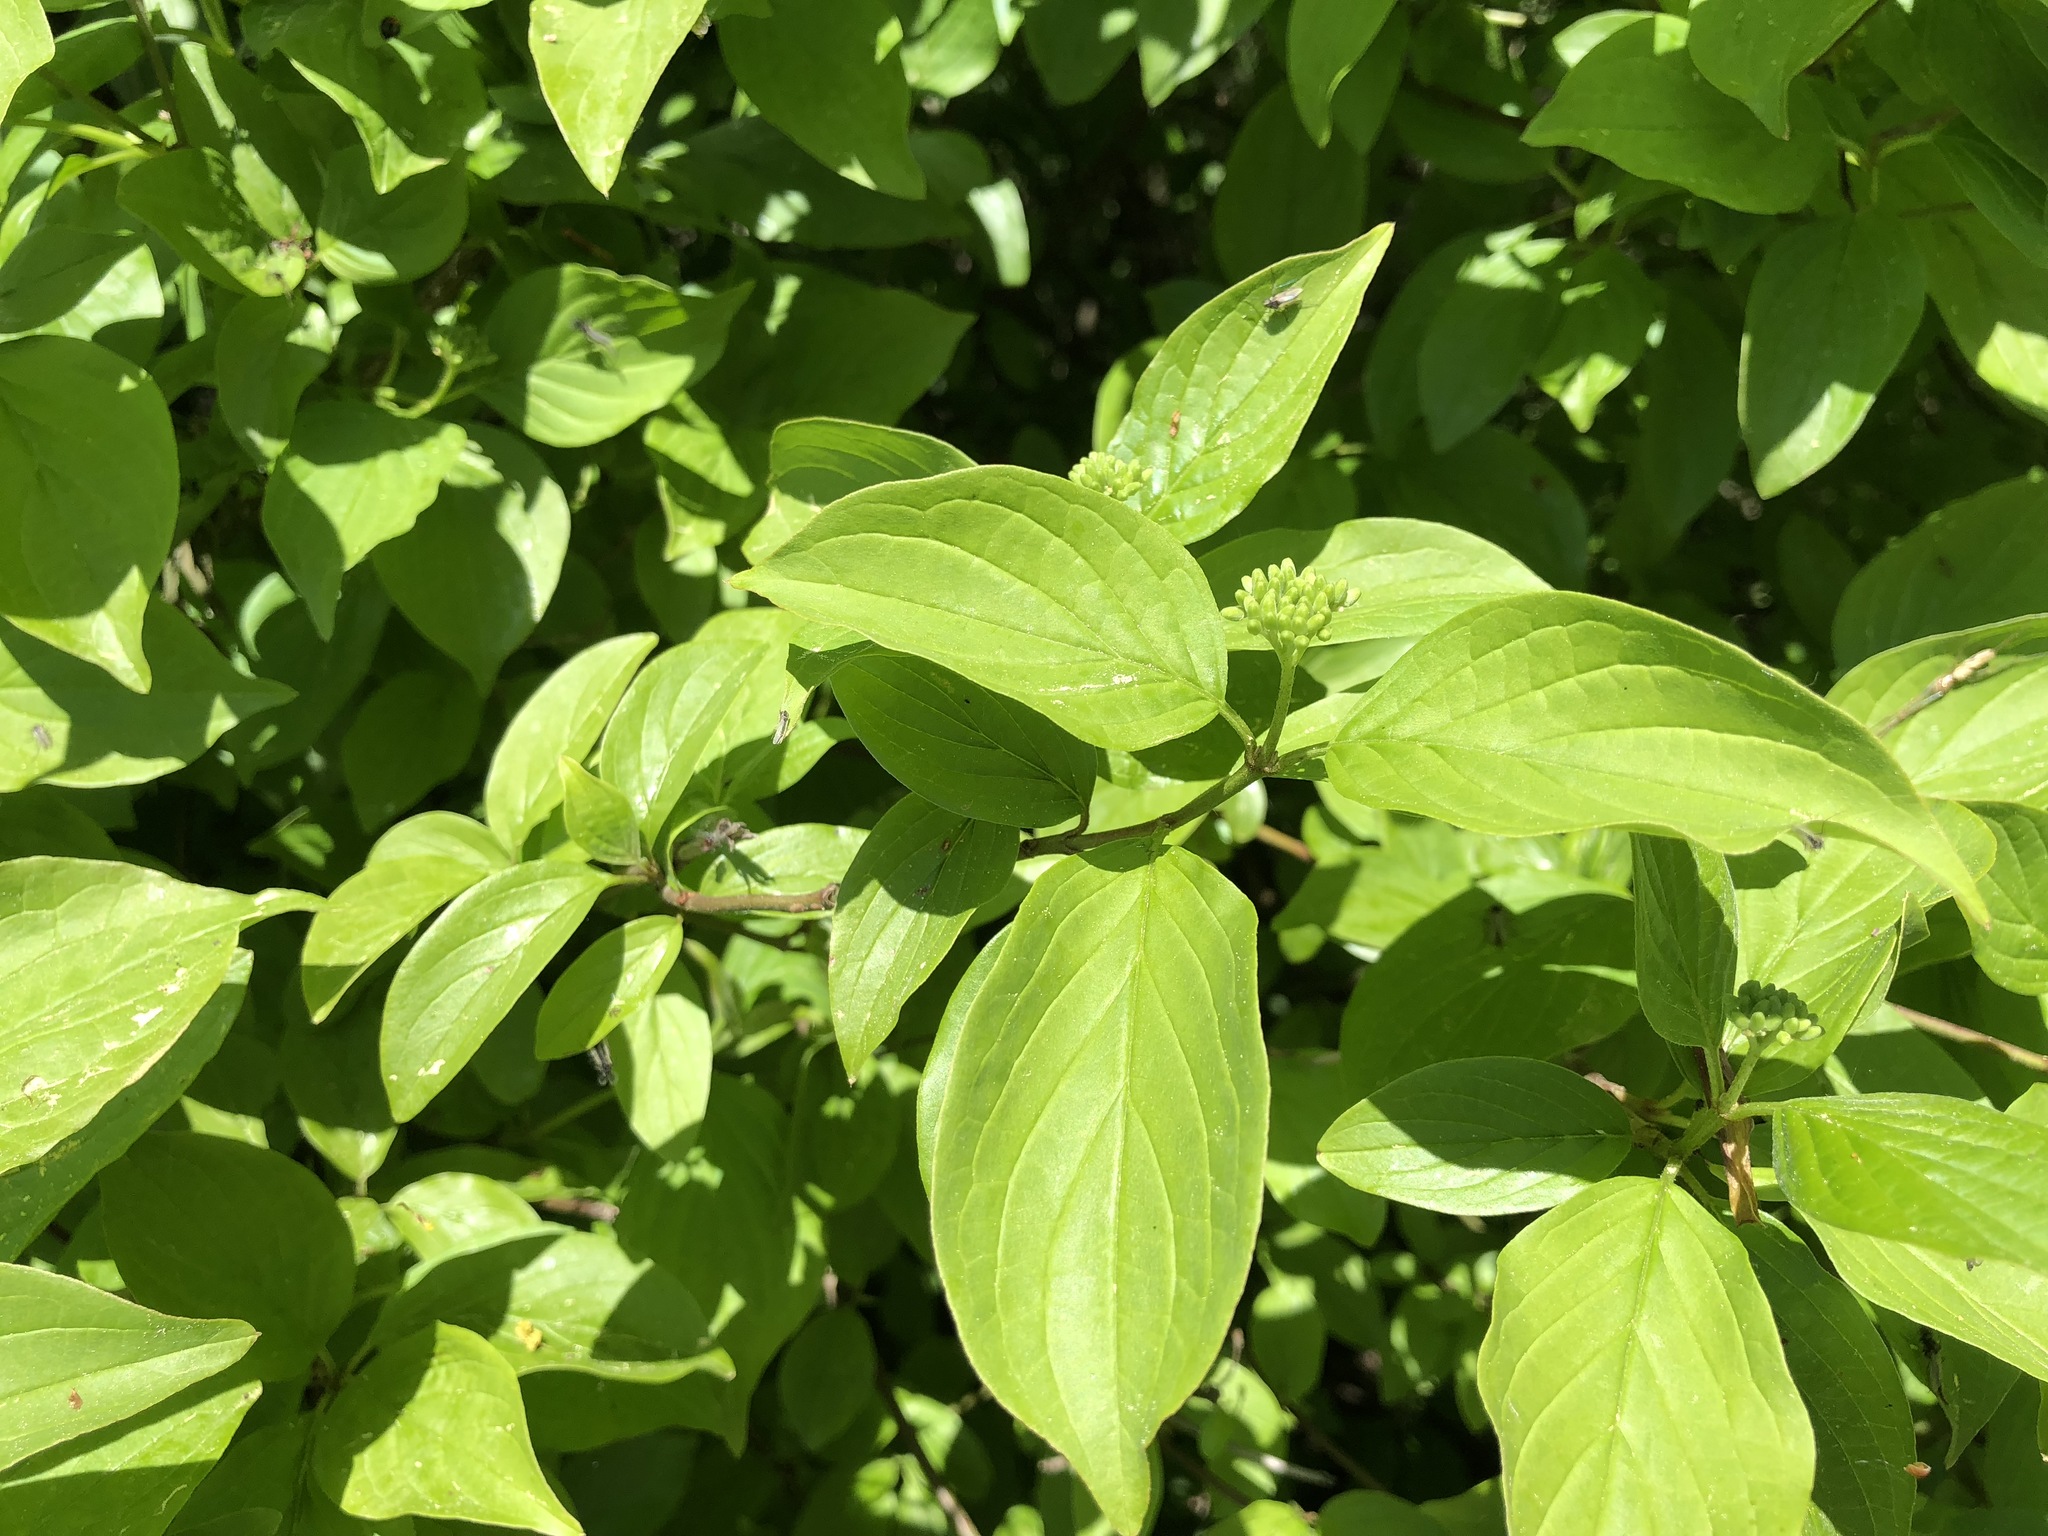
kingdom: Plantae
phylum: Tracheophyta
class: Magnoliopsida
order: Cornales
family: Cornaceae
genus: Cornus
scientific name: Cornus sanguinea
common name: Dogwood
